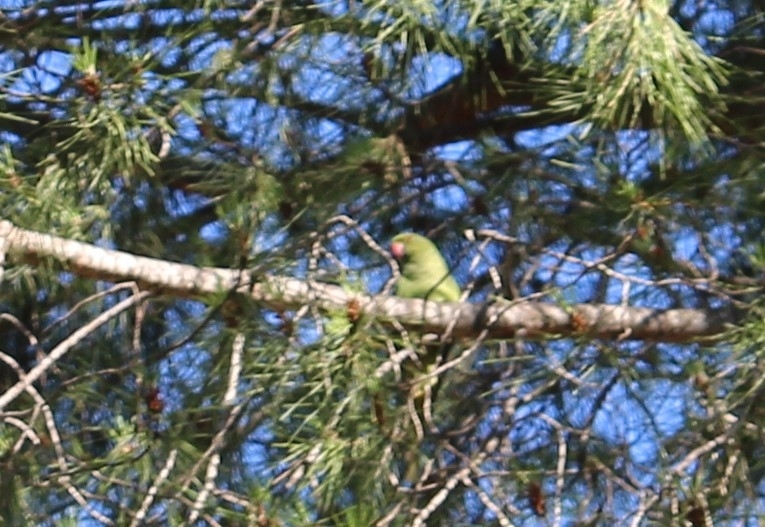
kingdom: Animalia
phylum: Chordata
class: Aves
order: Psittaciformes
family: Psittacidae
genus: Psittacula
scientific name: Psittacula krameri
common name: Rose-ringed parakeet
